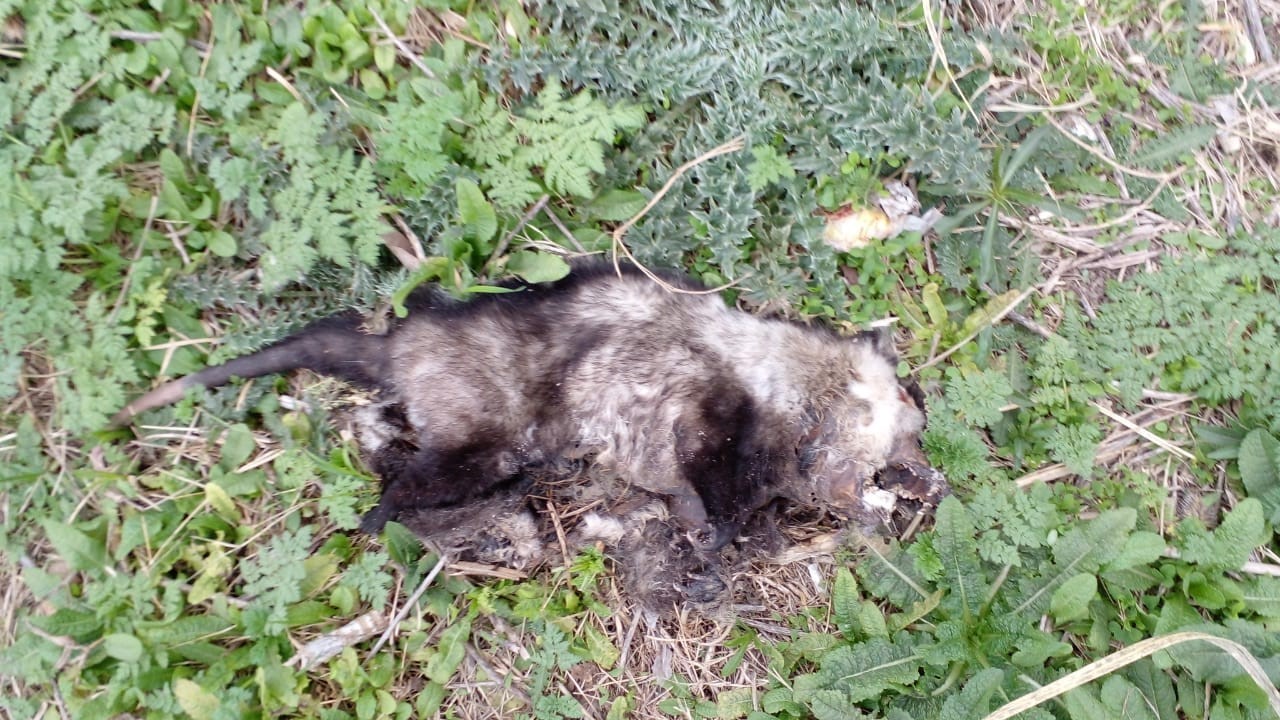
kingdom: Animalia
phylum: Chordata
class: Mammalia
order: Didelphimorphia
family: Didelphidae
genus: Didelphis
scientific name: Didelphis albiventris
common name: White-eared opossum
